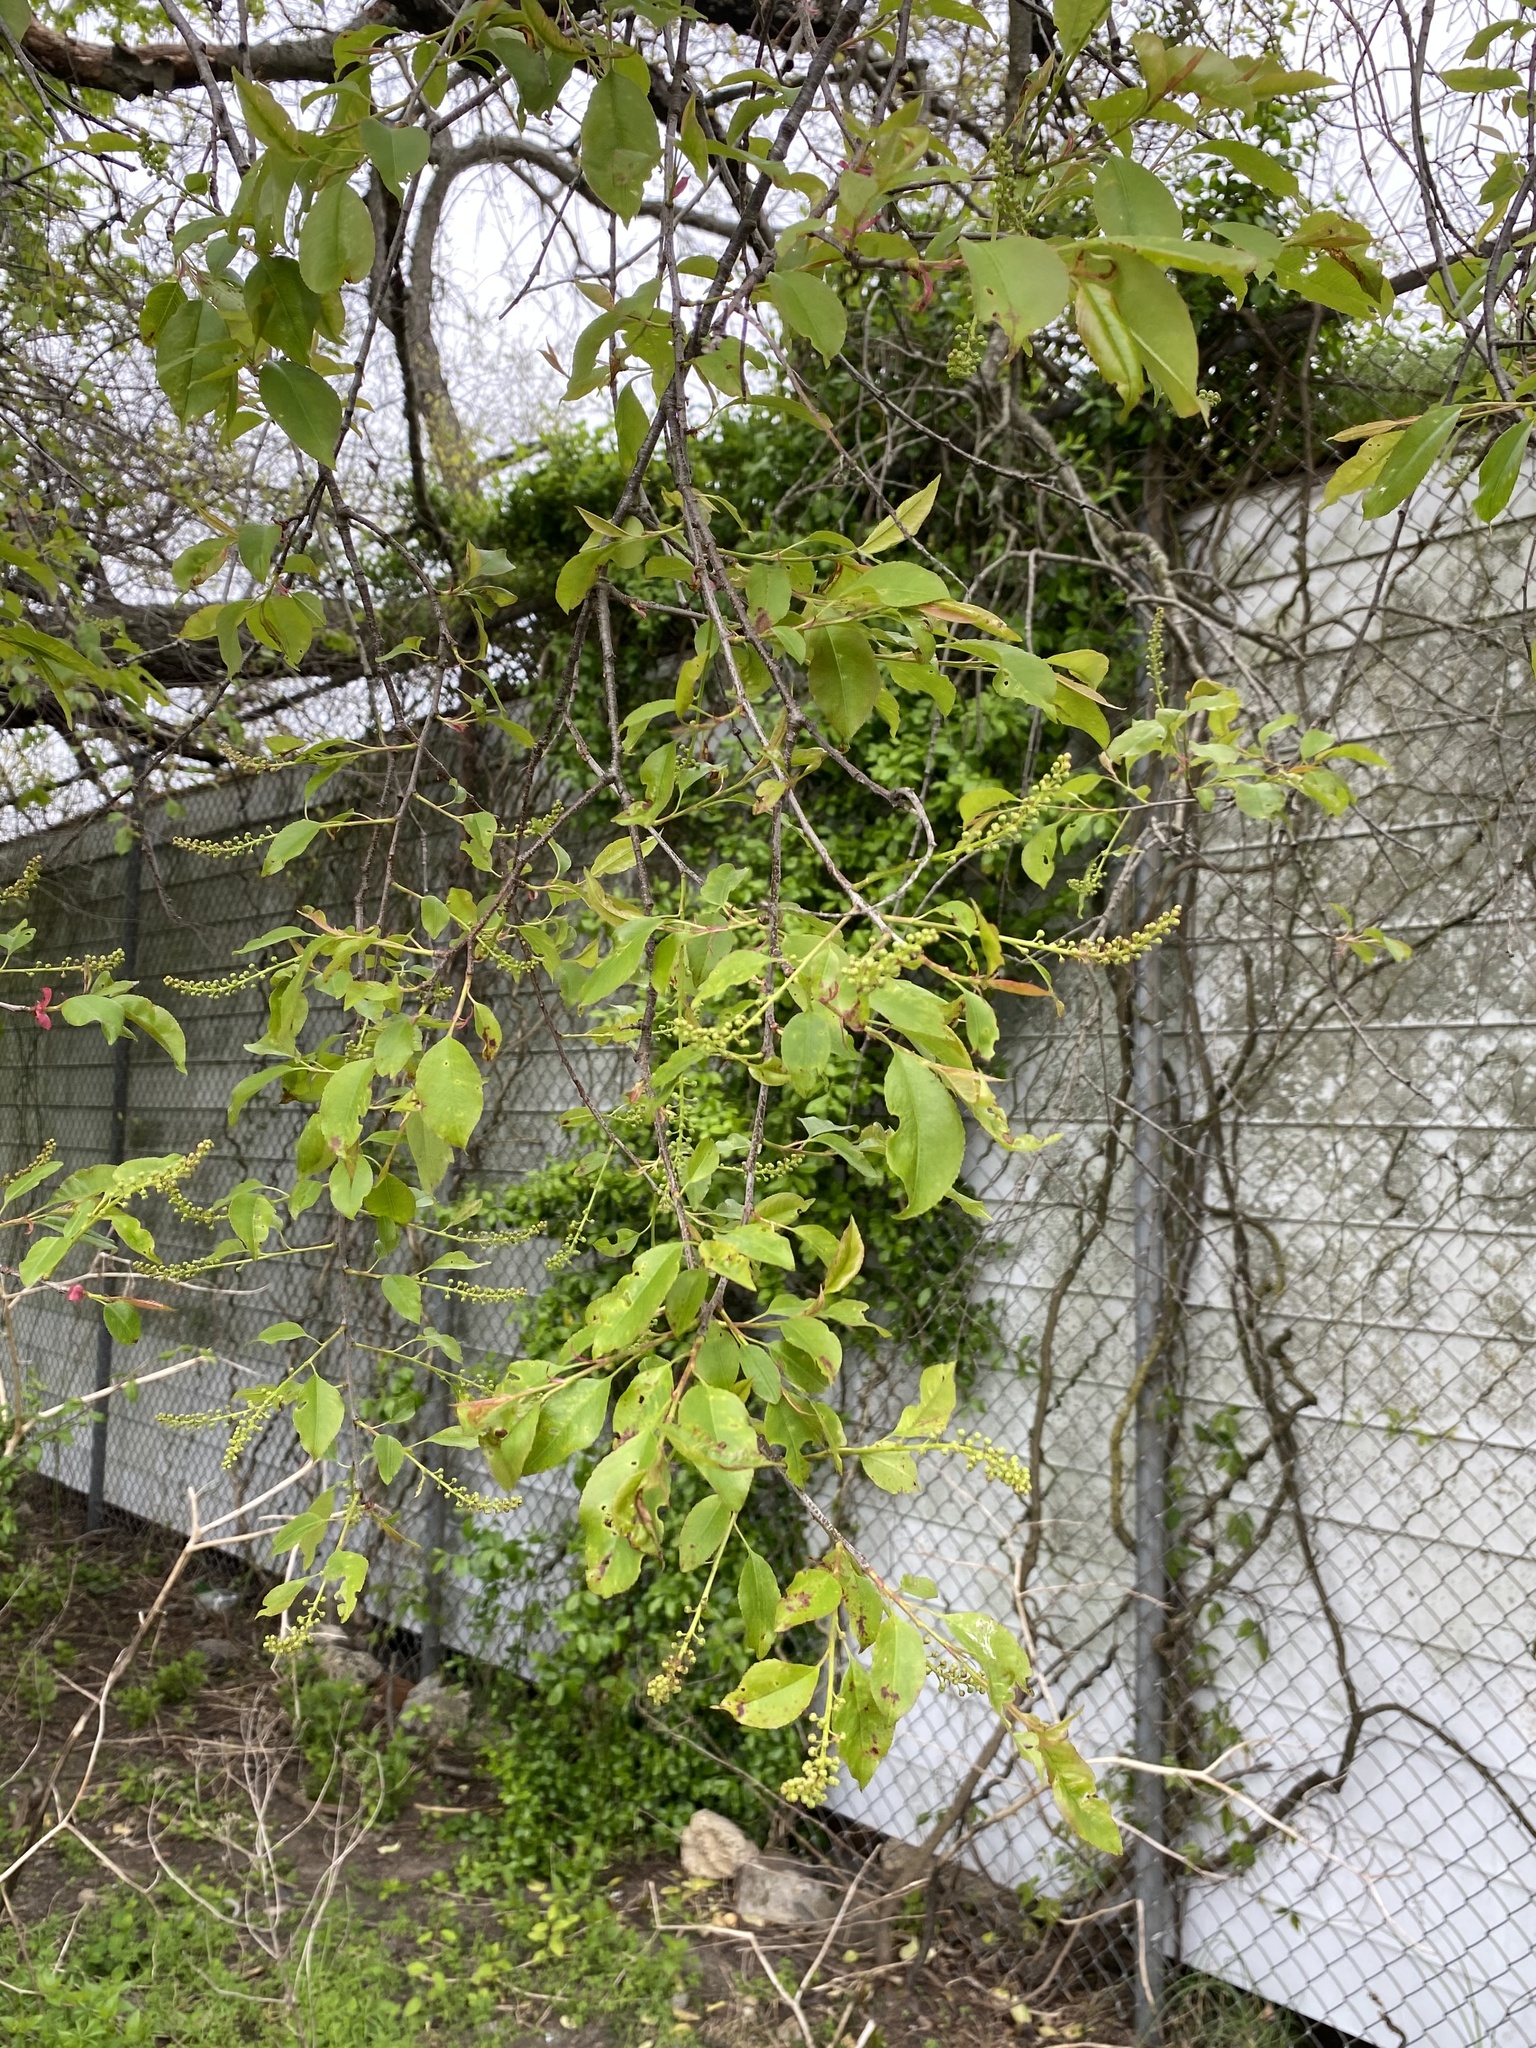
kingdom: Plantae
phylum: Tracheophyta
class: Magnoliopsida
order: Rosales
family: Rosaceae
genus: Prunus
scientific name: Prunus serotina
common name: Black cherry
